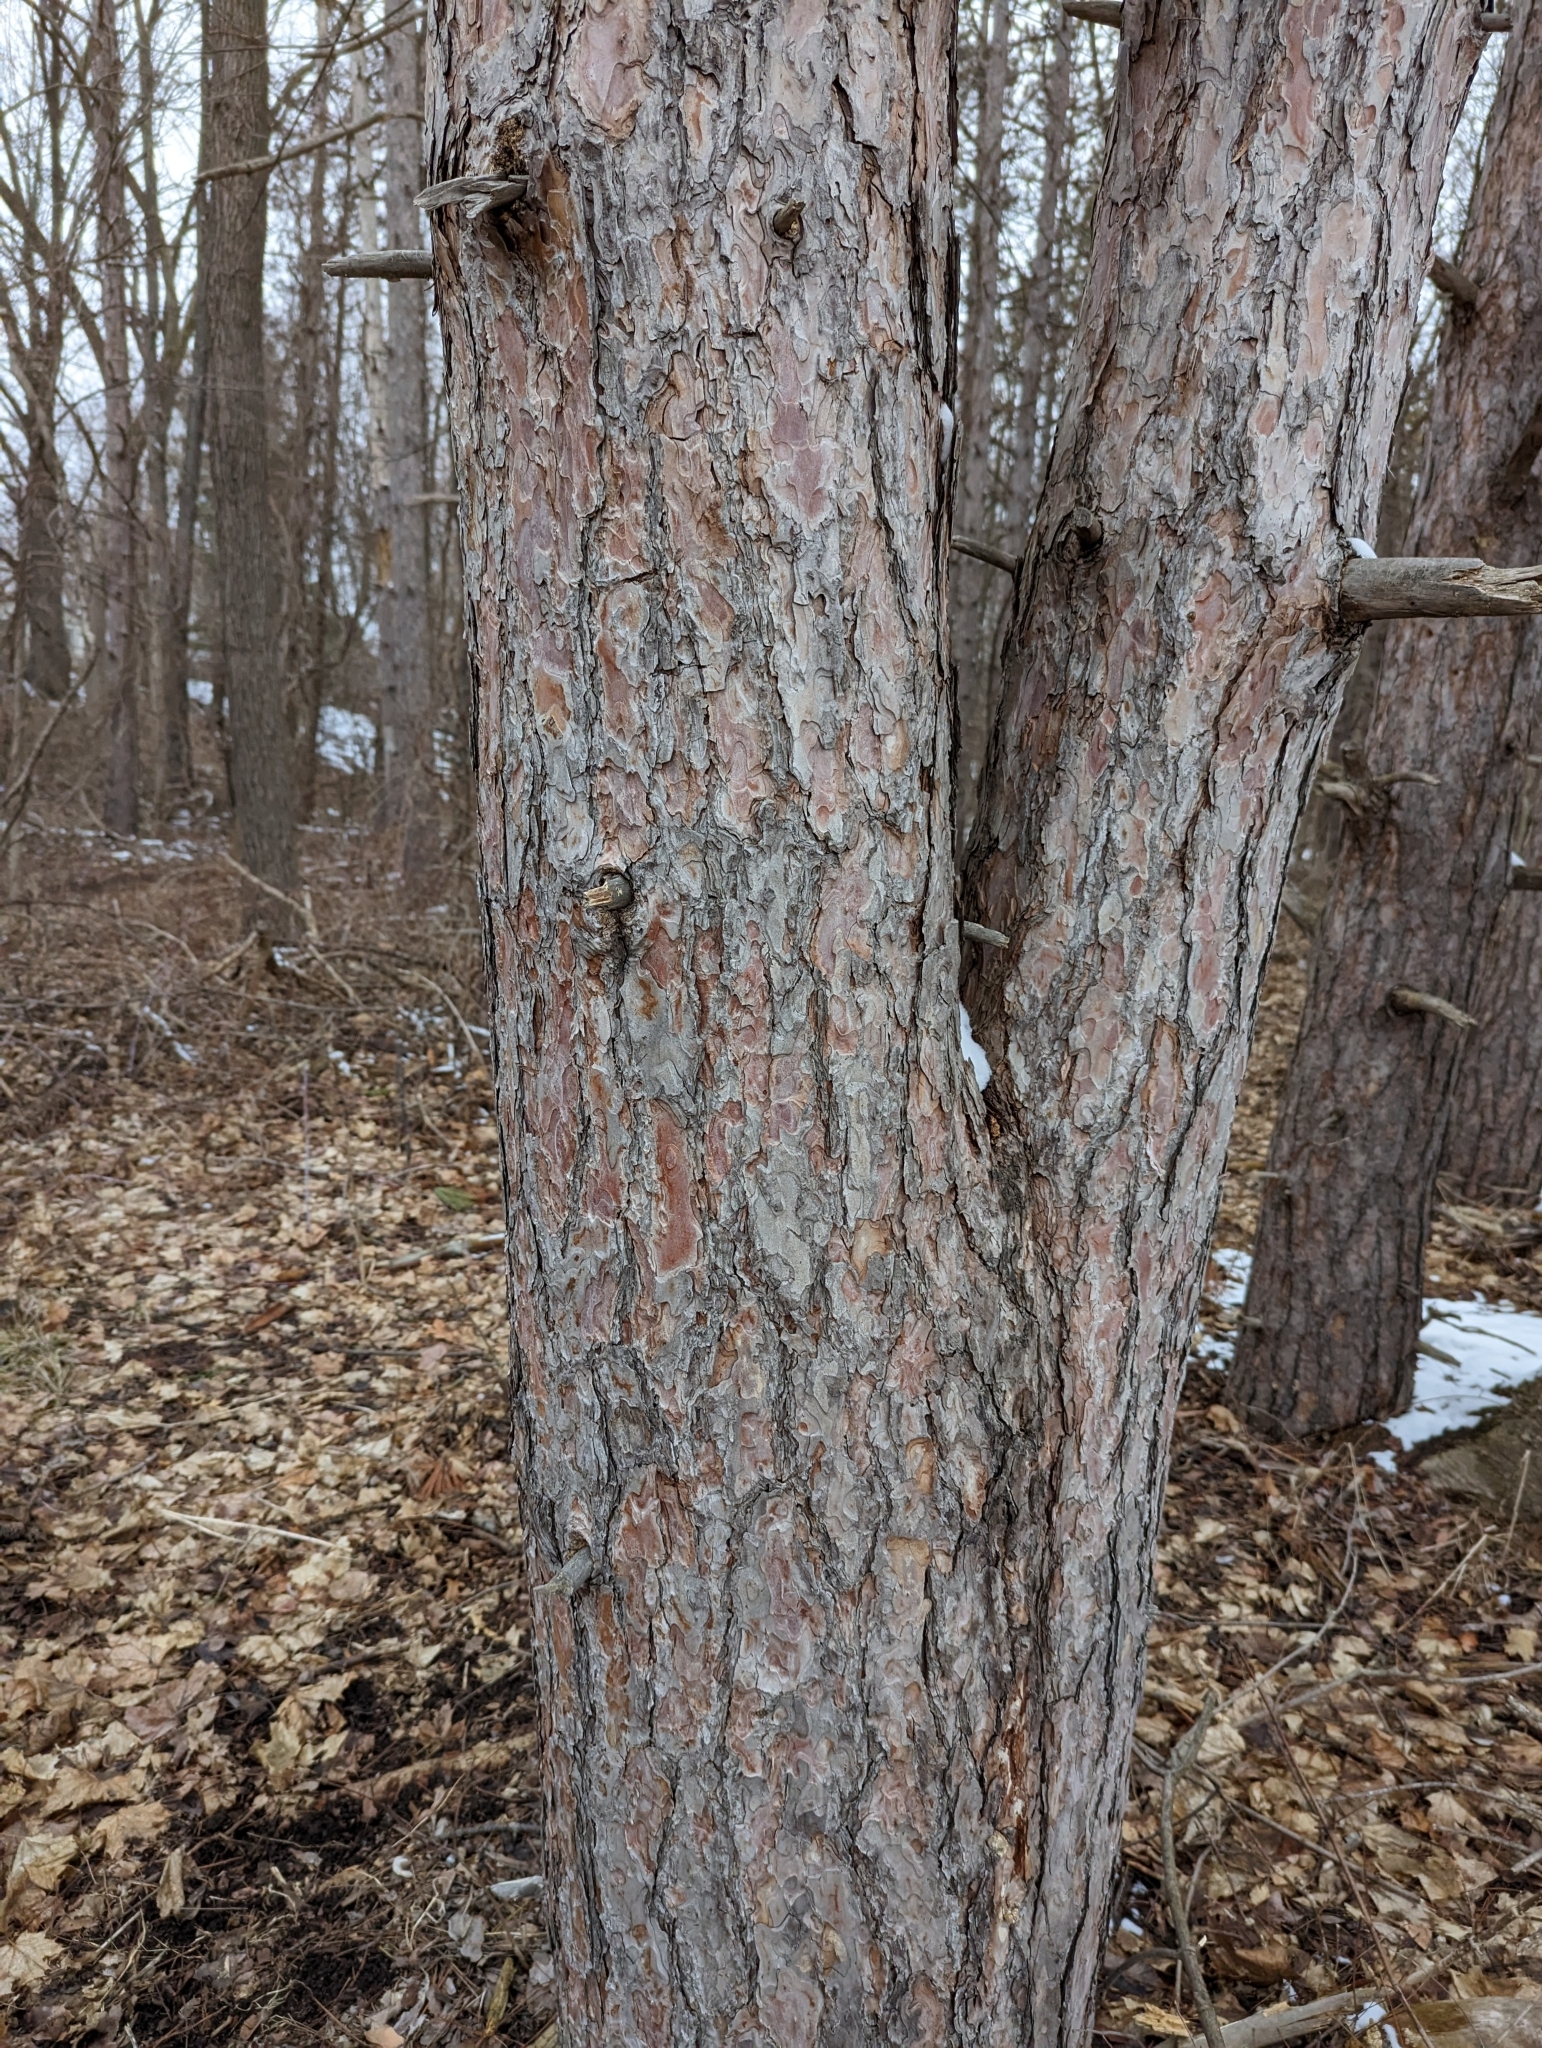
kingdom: Plantae
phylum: Tracheophyta
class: Pinopsida
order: Pinales
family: Pinaceae
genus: Pinus
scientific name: Pinus resinosa
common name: Norway pine
